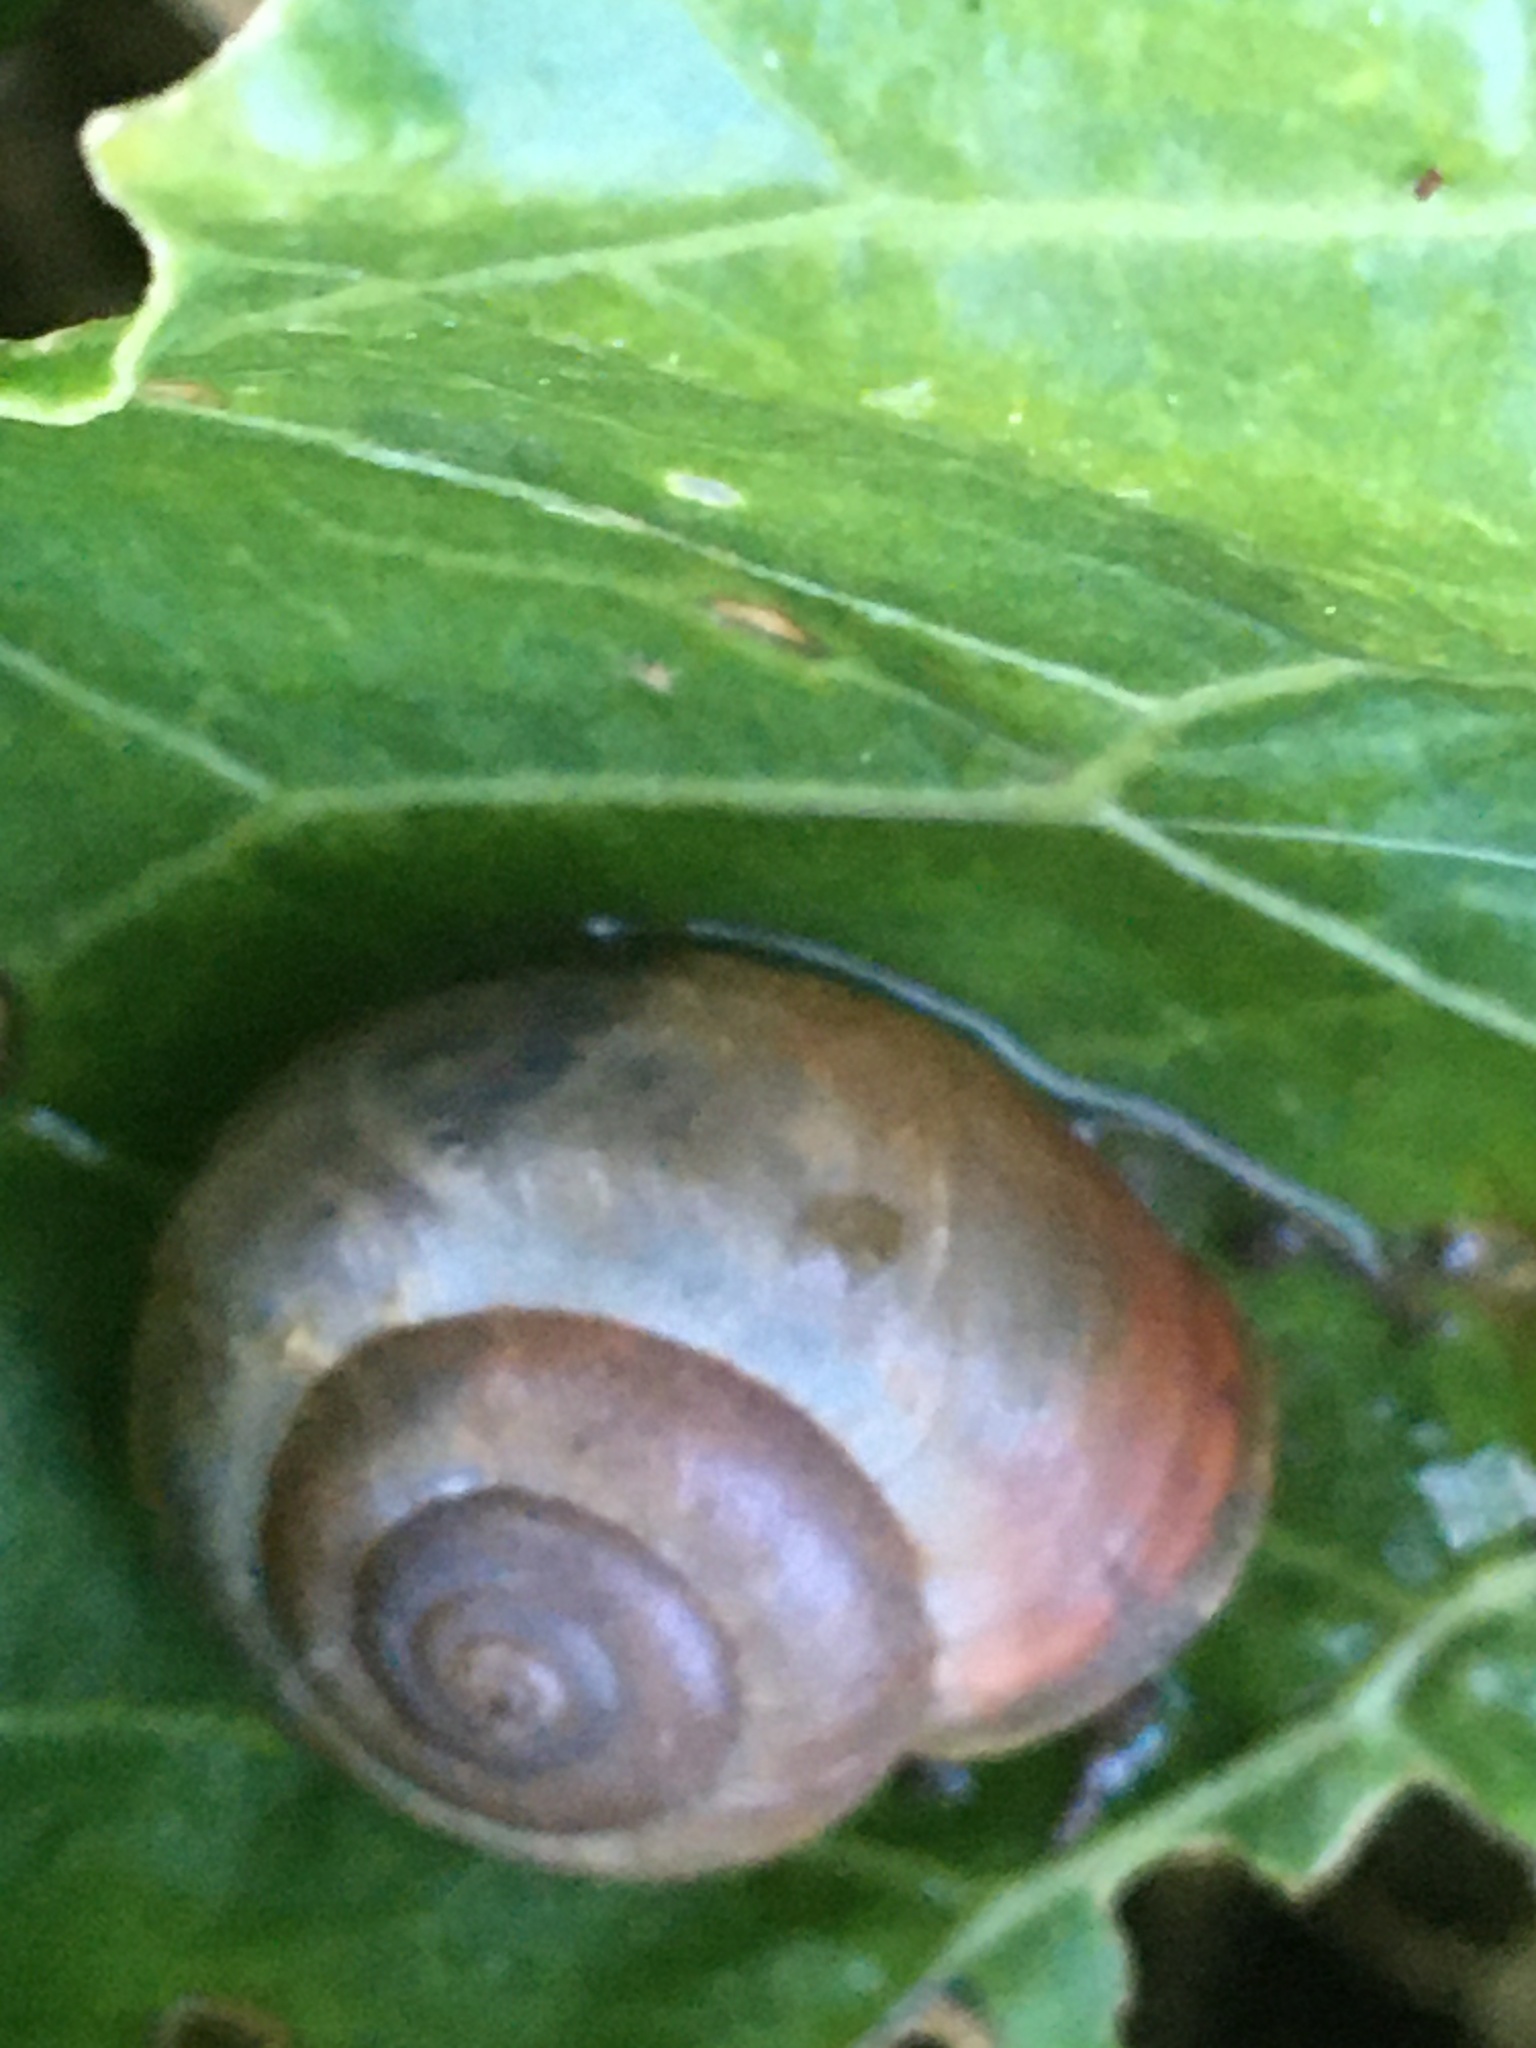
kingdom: Animalia
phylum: Mollusca
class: Gastropoda
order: Stylommatophora
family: Hygromiidae
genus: Monacha
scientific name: Monacha cantiana
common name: Kentish snail
